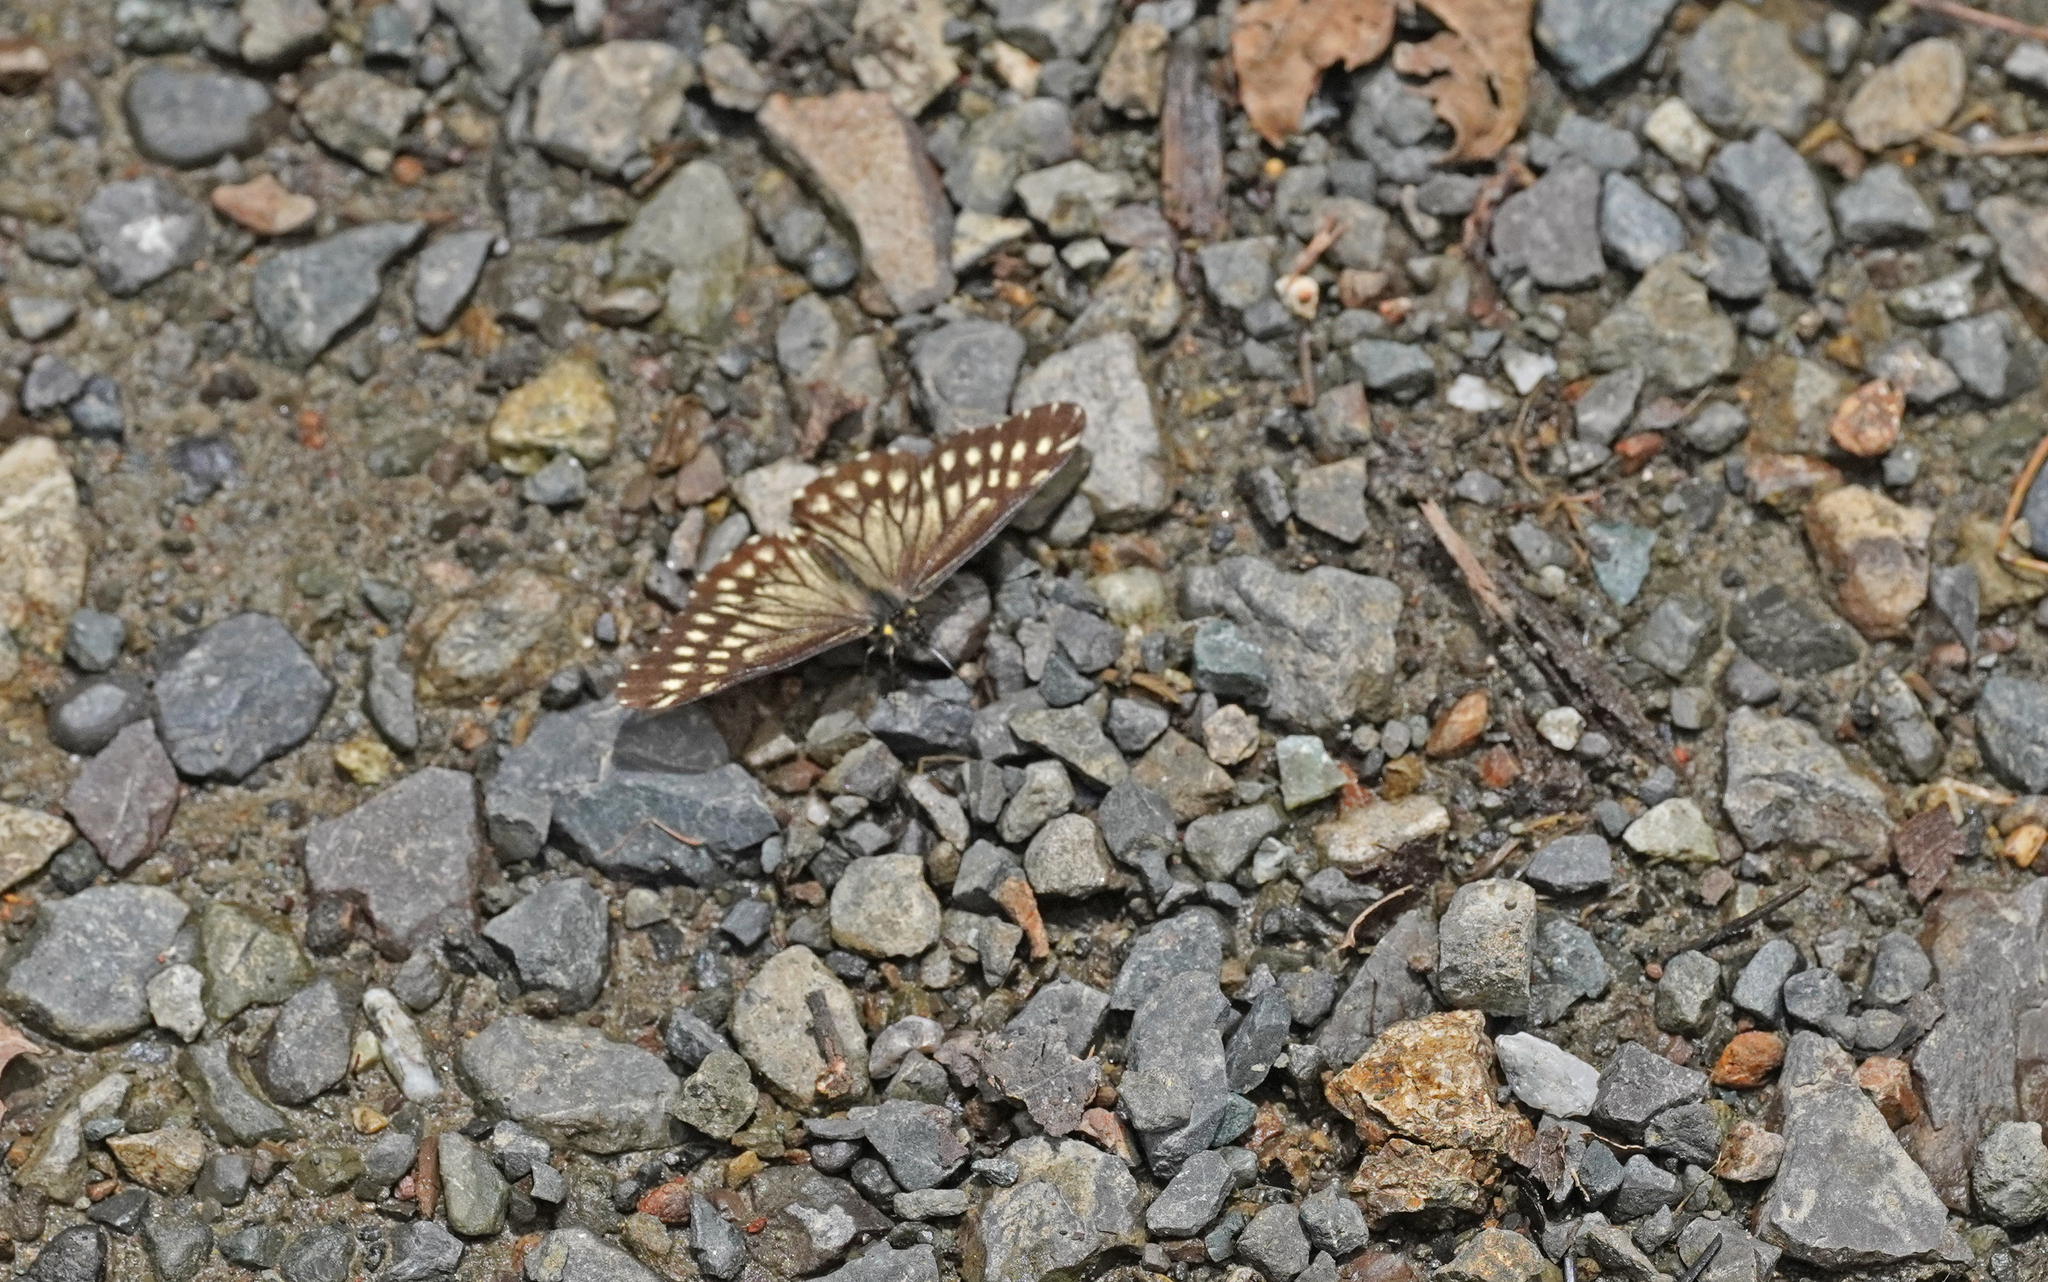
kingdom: Animalia
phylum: Arthropoda
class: Insecta
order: Lepidoptera
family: Pieridae
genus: Catasticta
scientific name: Catasticta seitzi
